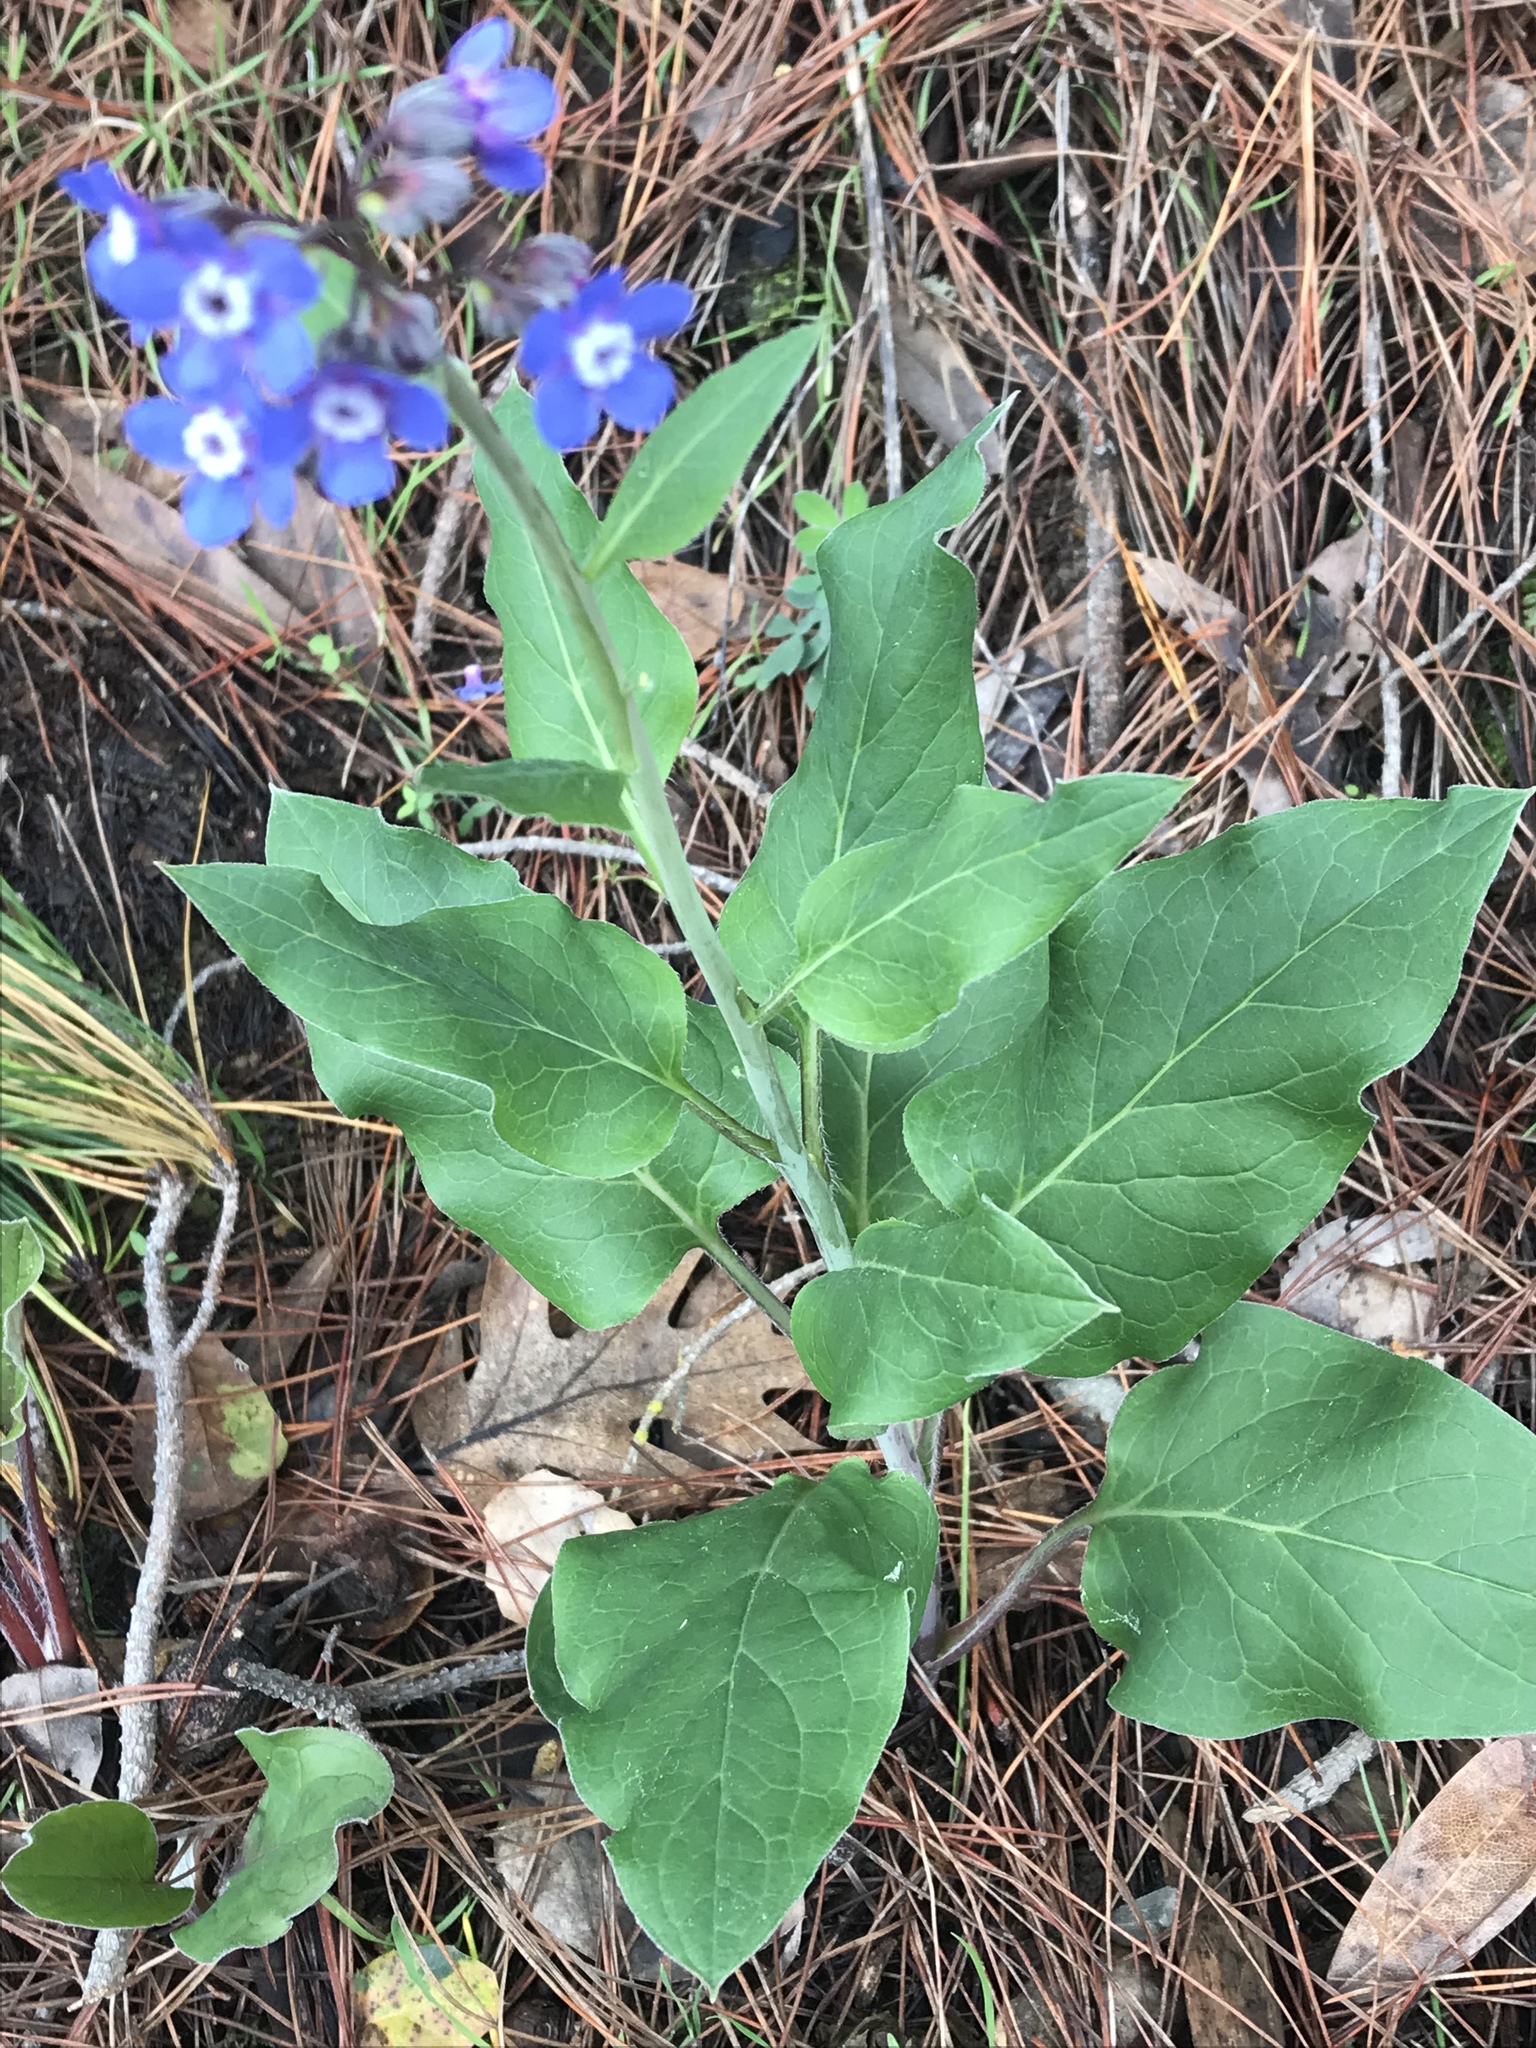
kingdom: Plantae
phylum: Tracheophyta
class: Magnoliopsida
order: Boraginales
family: Boraginaceae
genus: Adelinia
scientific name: Adelinia grande
